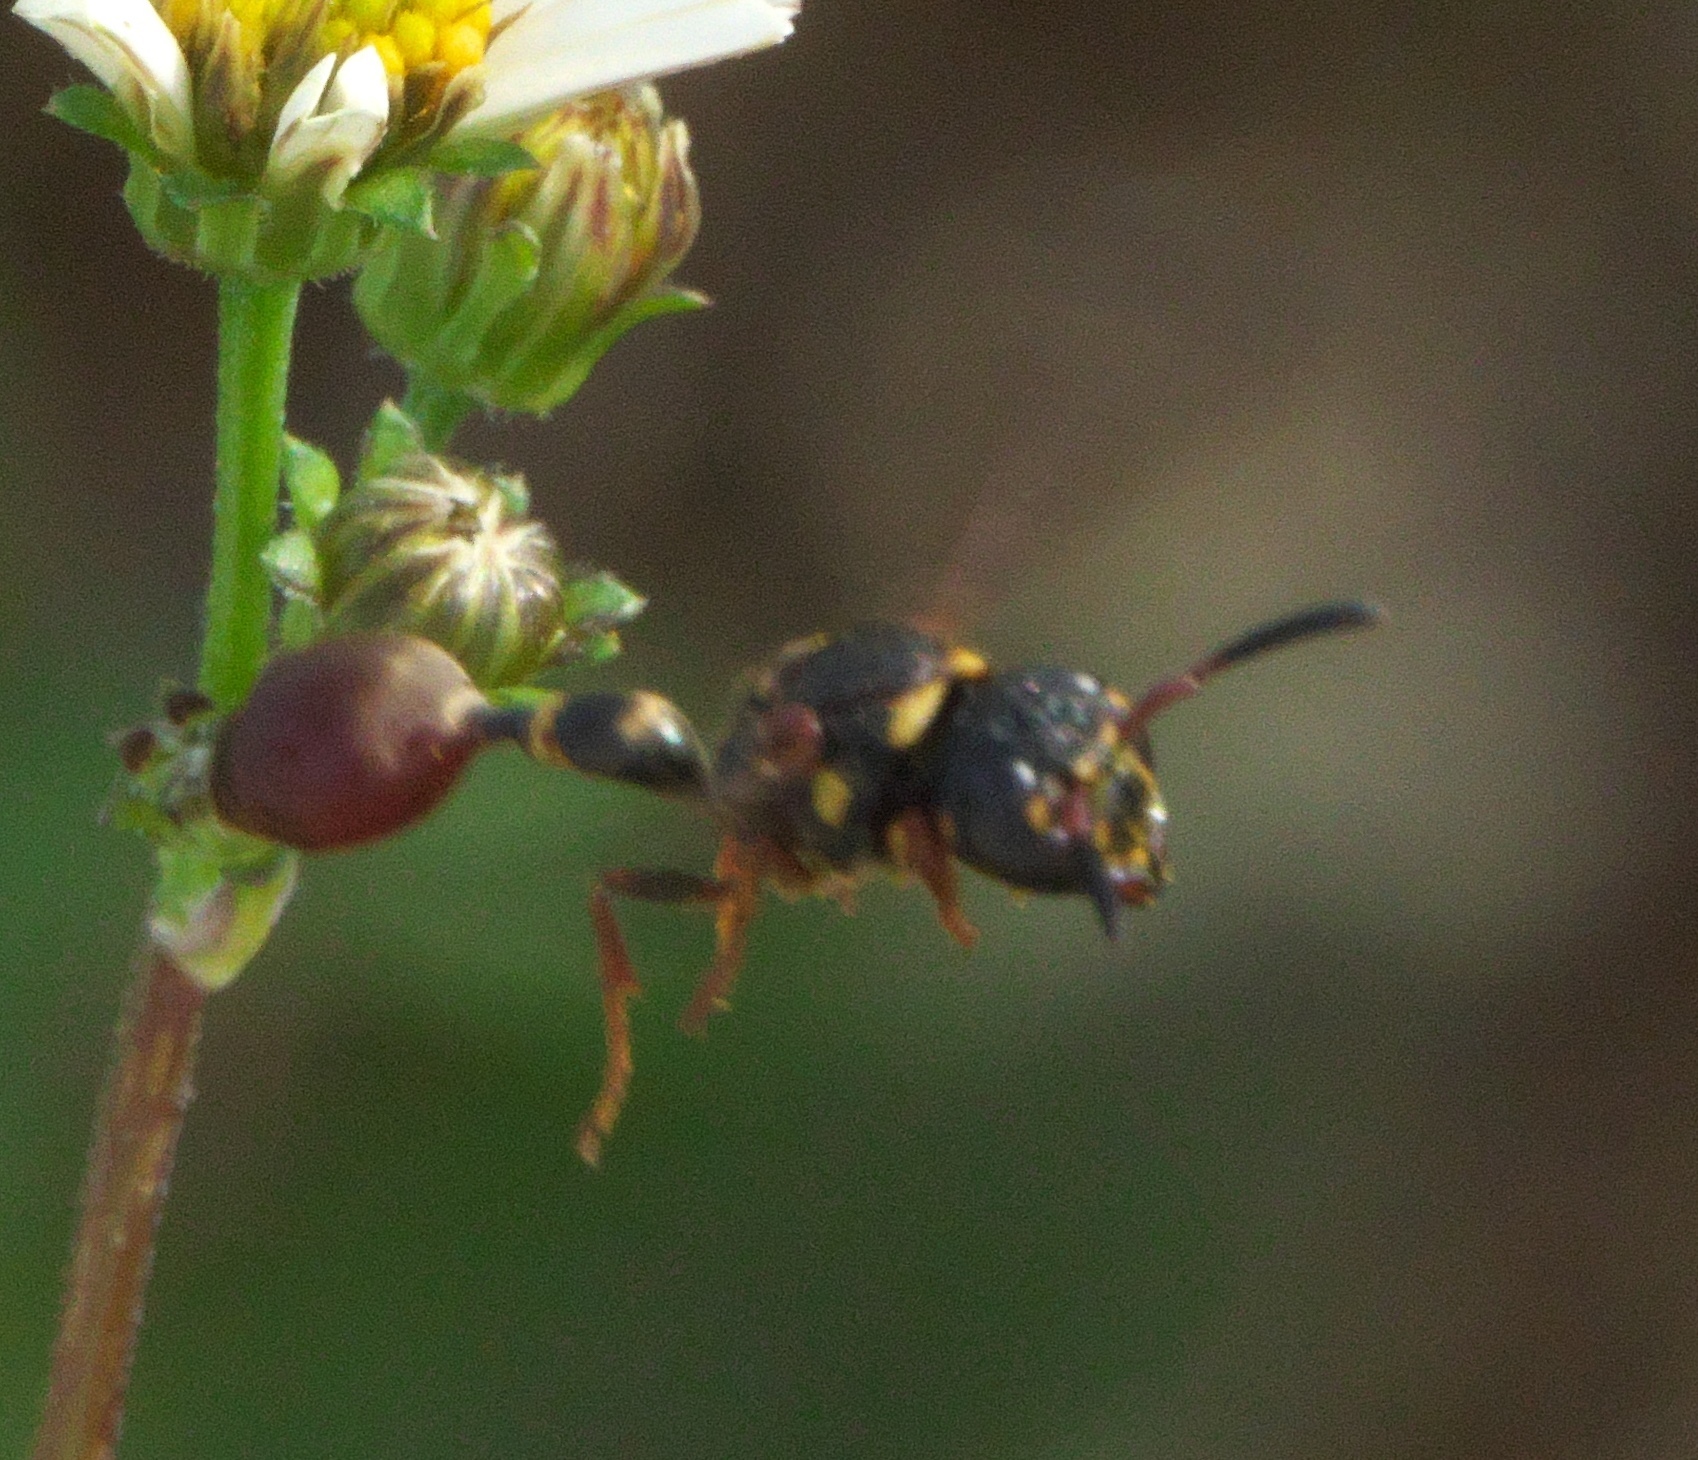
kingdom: Animalia
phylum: Arthropoda
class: Insecta
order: Hymenoptera
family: Eumenidae
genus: Zethus
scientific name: Zethus slossonae
